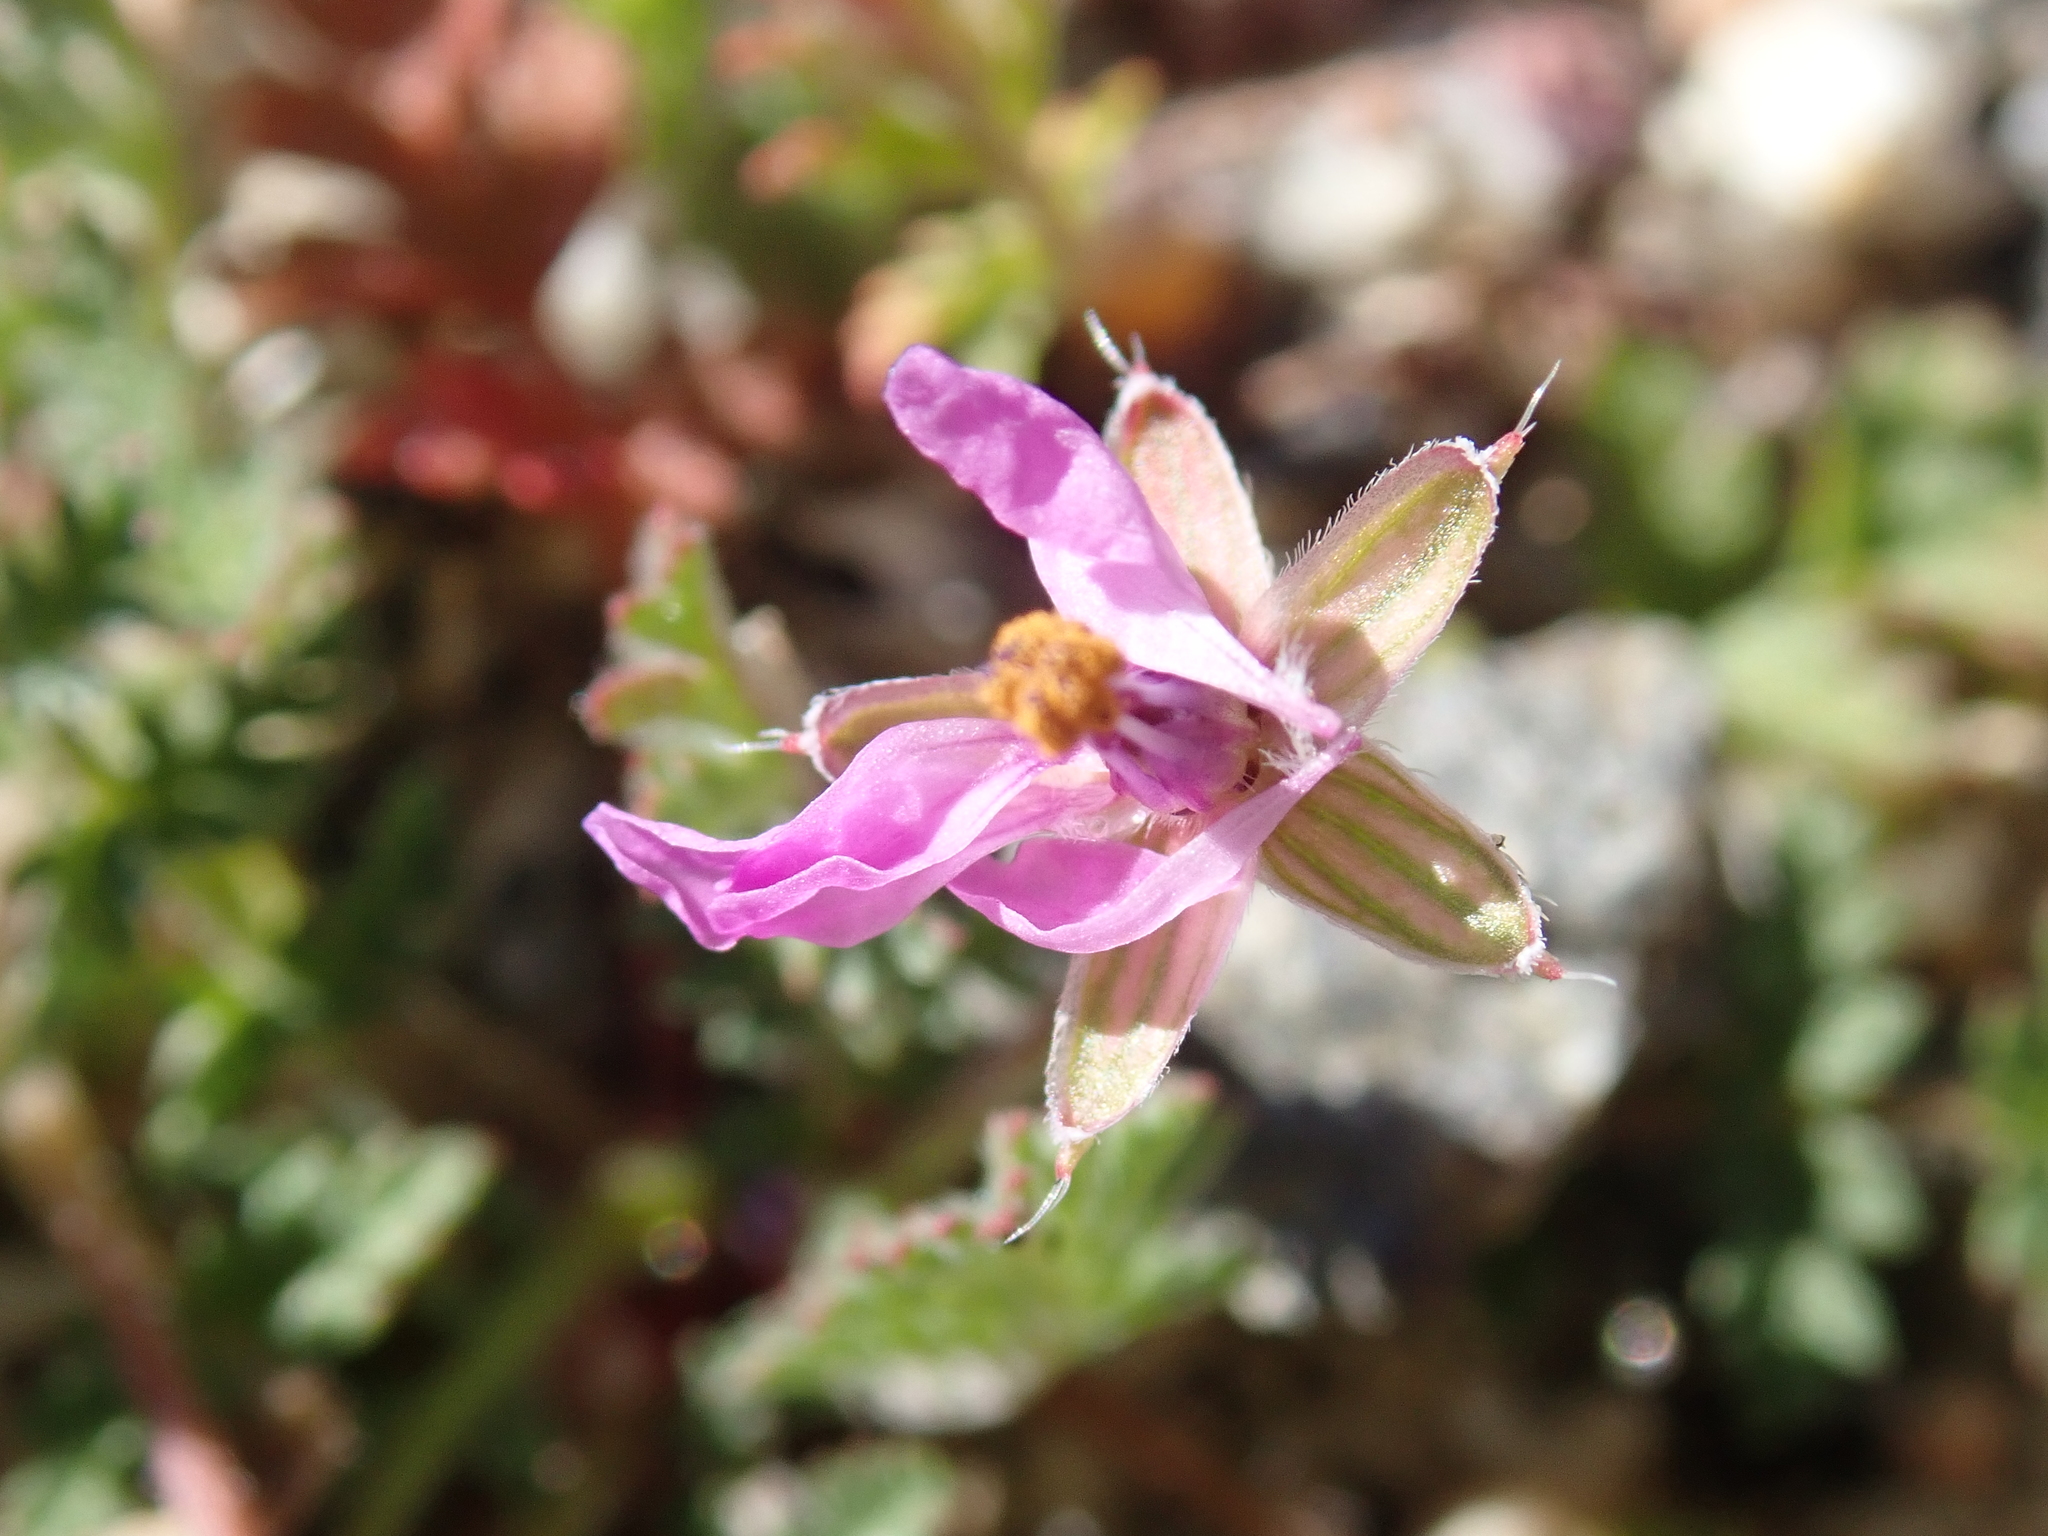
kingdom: Plantae
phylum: Tracheophyta
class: Magnoliopsida
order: Geraniales
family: Geraniaceae
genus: Erodium
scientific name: Erodium cicutarium
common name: Common stork's-bill
